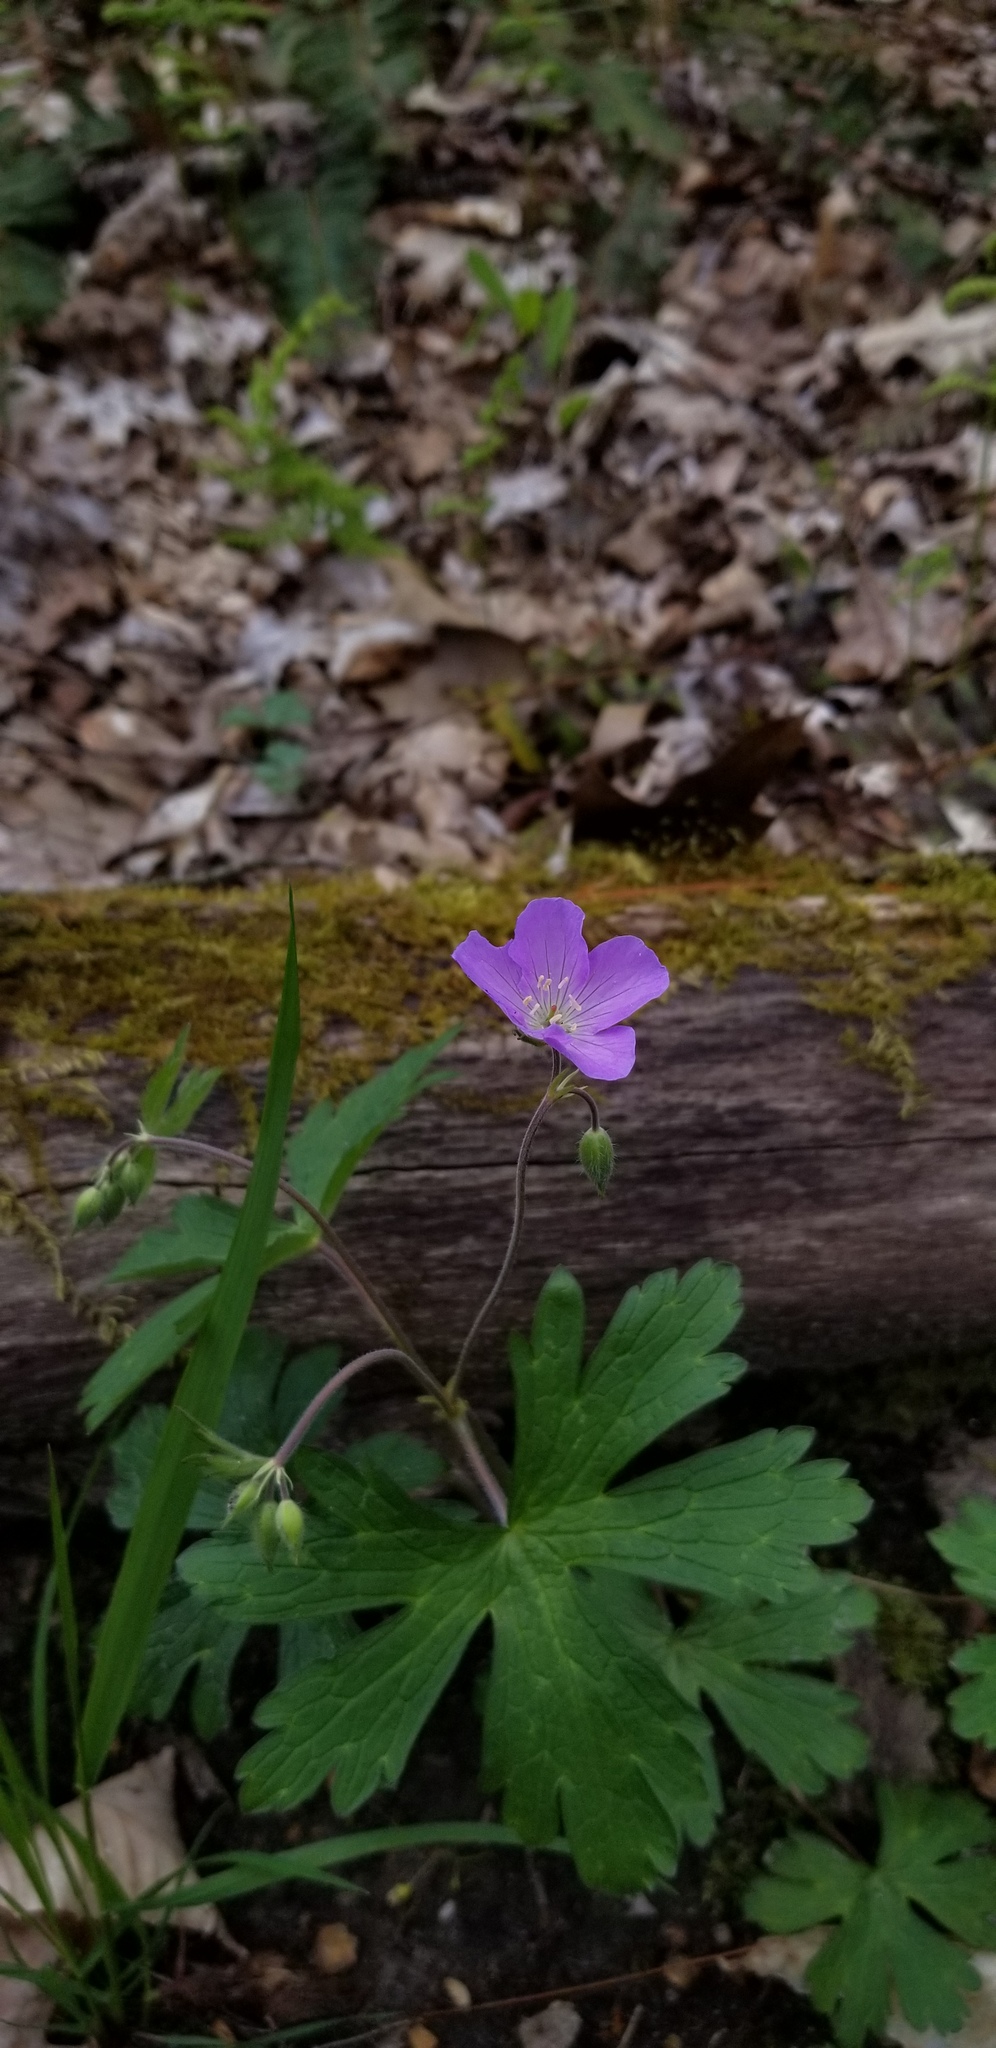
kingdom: Plantae
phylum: Tracheophyta
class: Magnoliopsida
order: Geraniales
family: Geraniaceae
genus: Geranium
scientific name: Geranium maculatum
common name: Spotted geranium
